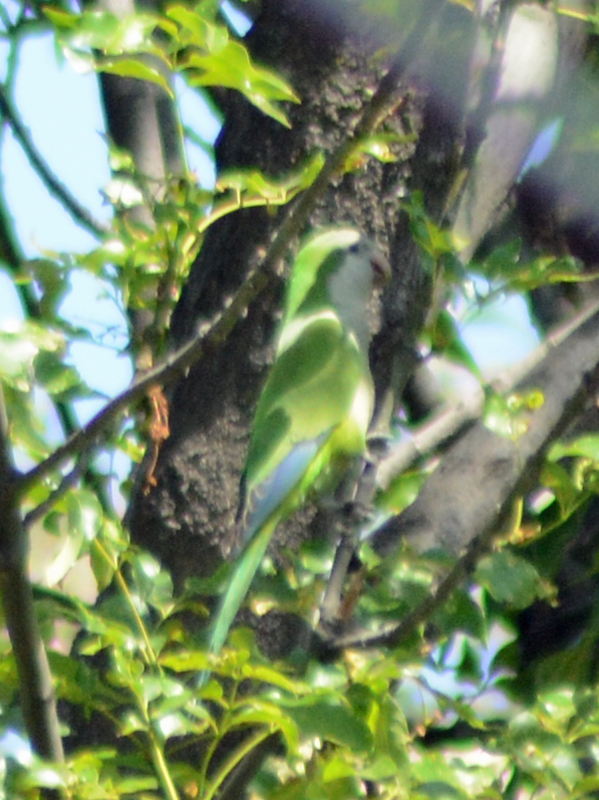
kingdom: Animalia
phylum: Chordata
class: Aves
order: Psittaciformes
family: Psittacidae
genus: Myiopsitta
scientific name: Myiopsitta monachus
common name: Monk parakeet
